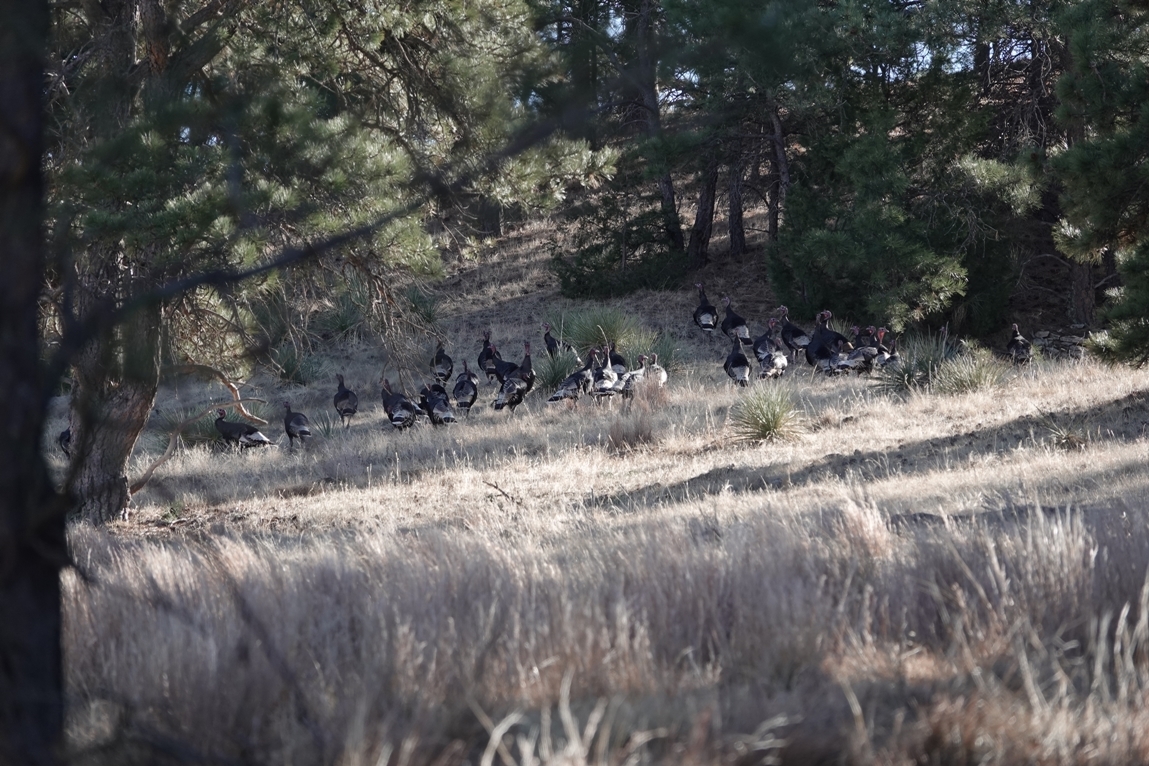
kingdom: Animalia
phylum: Chordata
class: Aves
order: Galliformes
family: Phasianidae
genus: Meleagris
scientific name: Meleagris gallopavo
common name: Wild turkey
